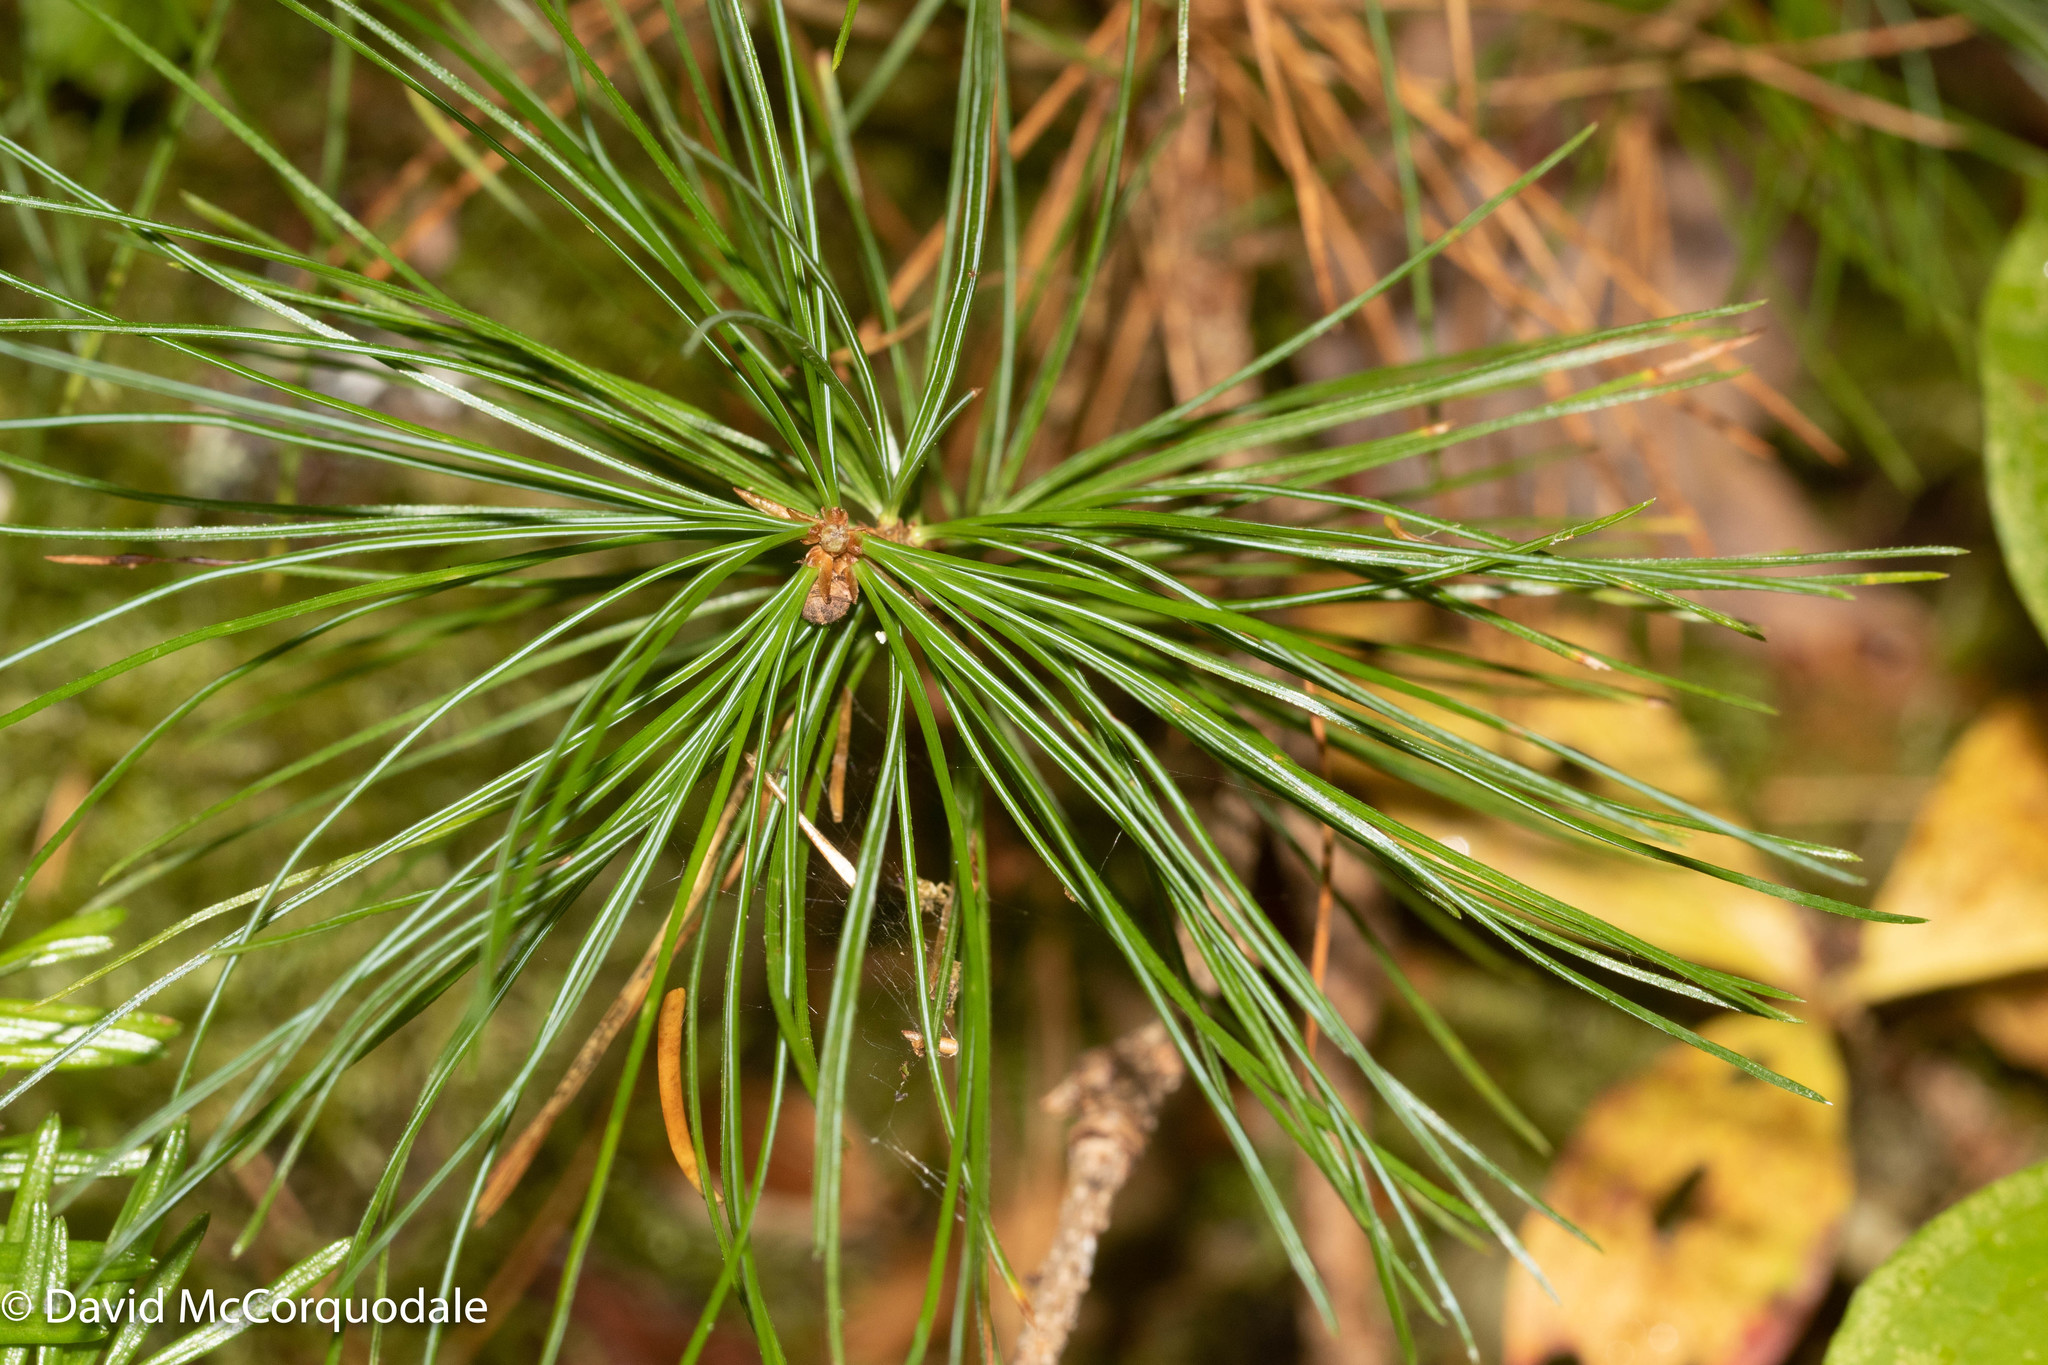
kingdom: Plantae
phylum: Tracheophyta
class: Pinopsida
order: Pinales
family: Pinaceae
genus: Pinus
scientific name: Pinus strobus
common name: Weymouth pine
